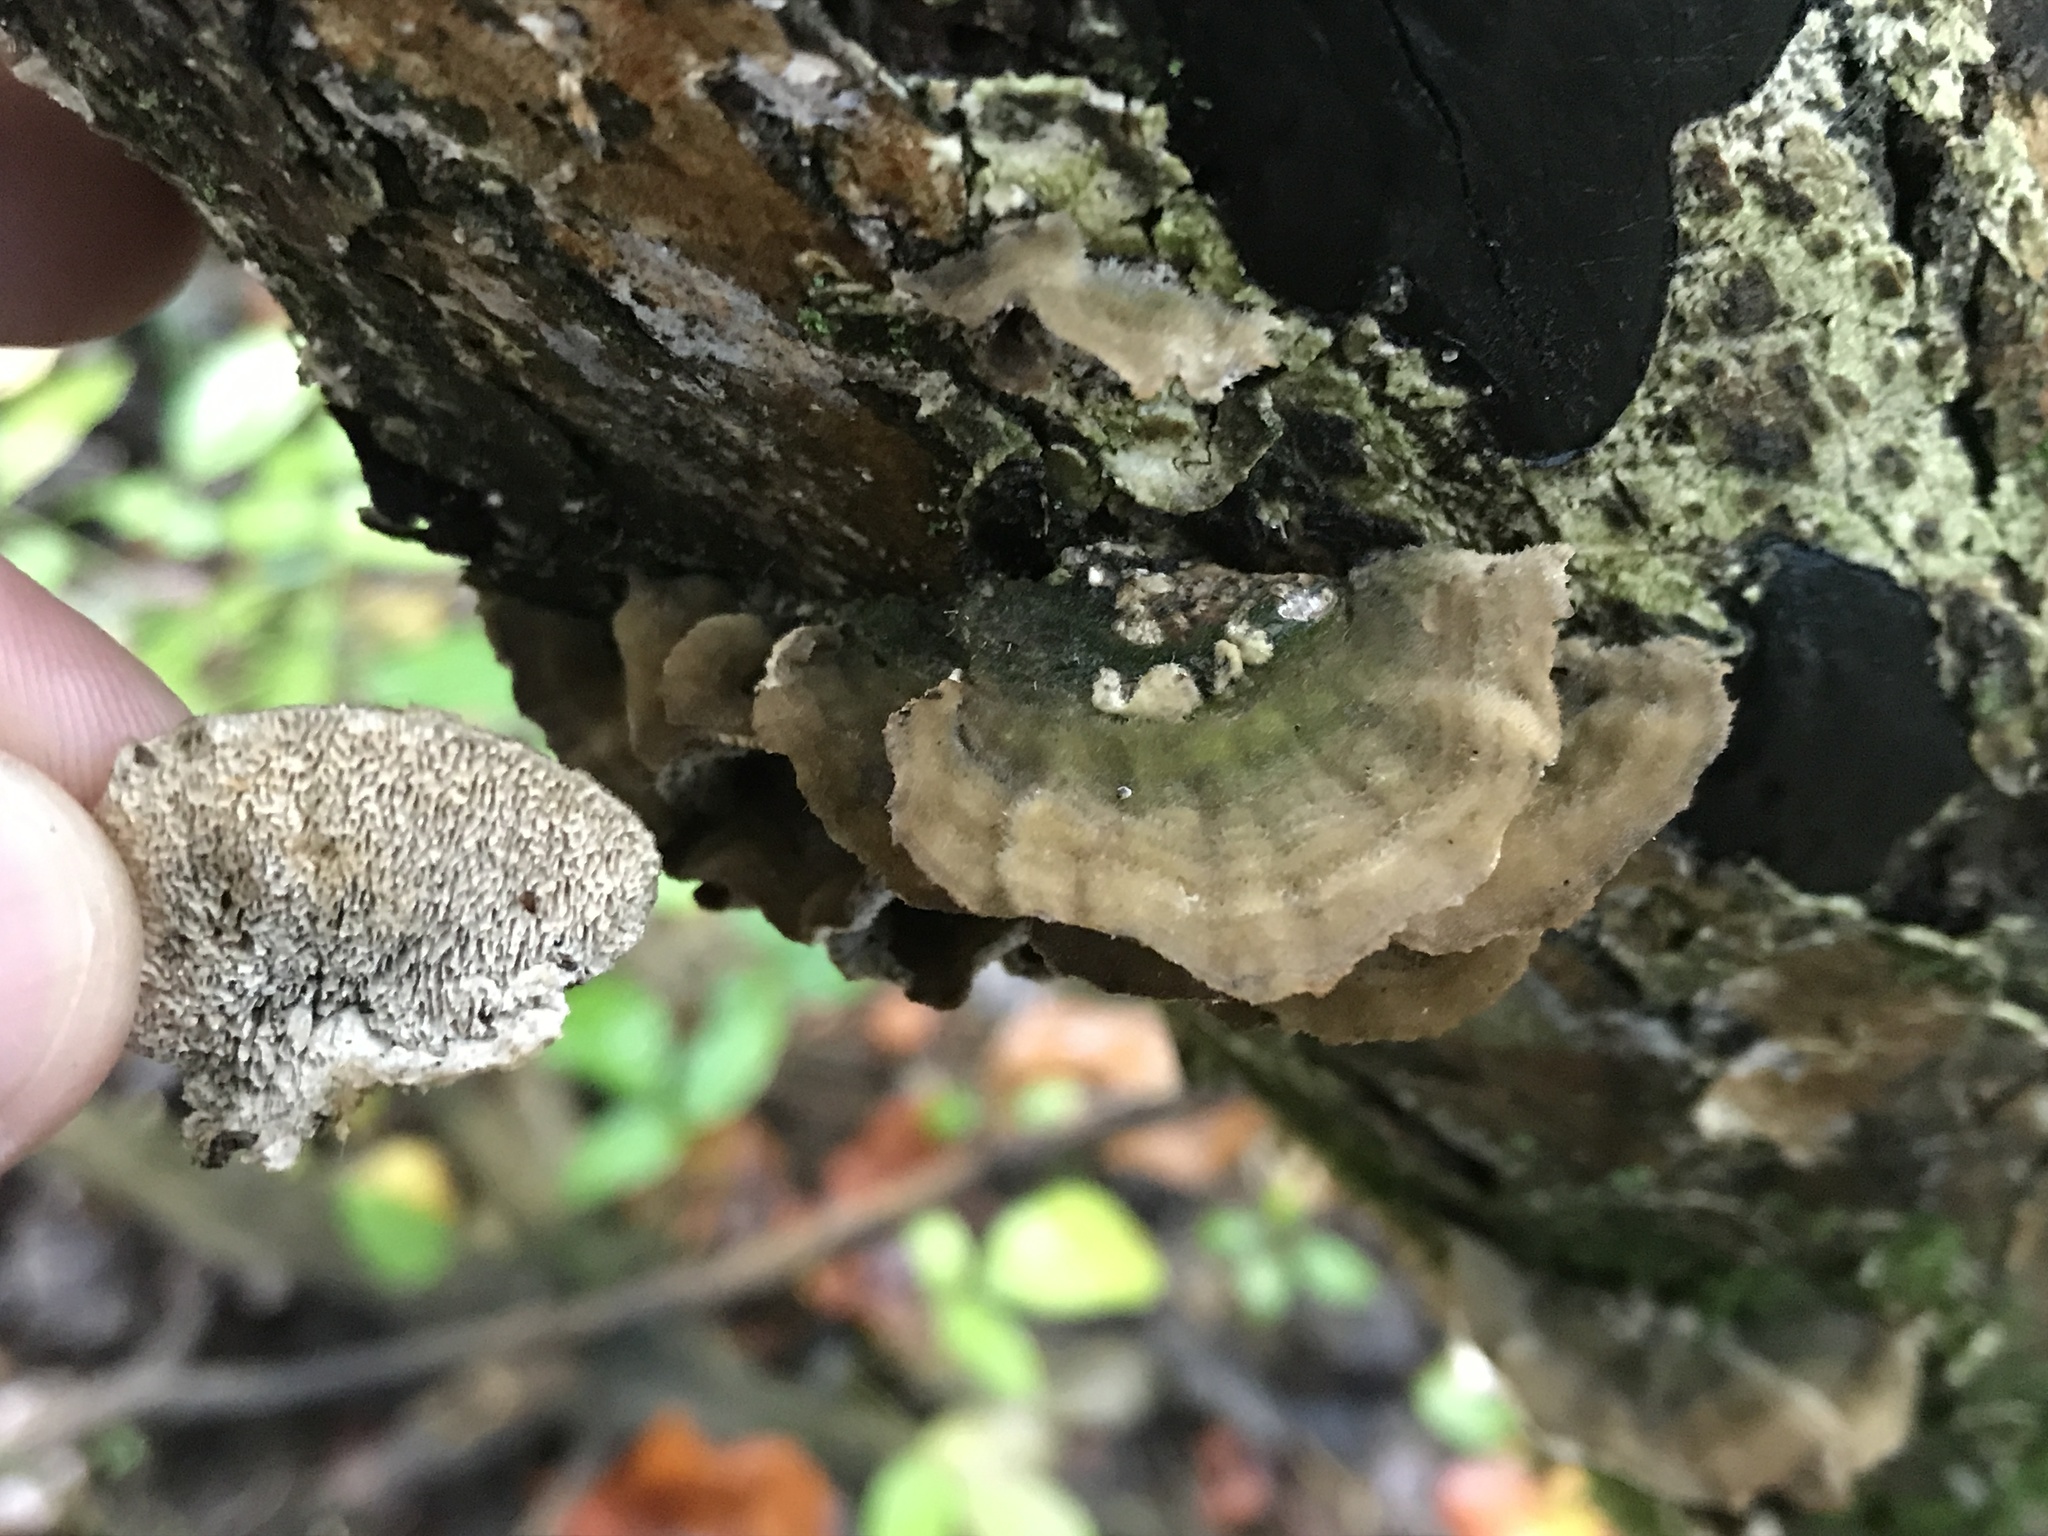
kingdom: Fungi
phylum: Basidiomycota
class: Agaricomycetes
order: Polyporales
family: Cerrenaceae
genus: Cerrena
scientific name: Cerrena unicolor
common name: Mossy maze polypore
